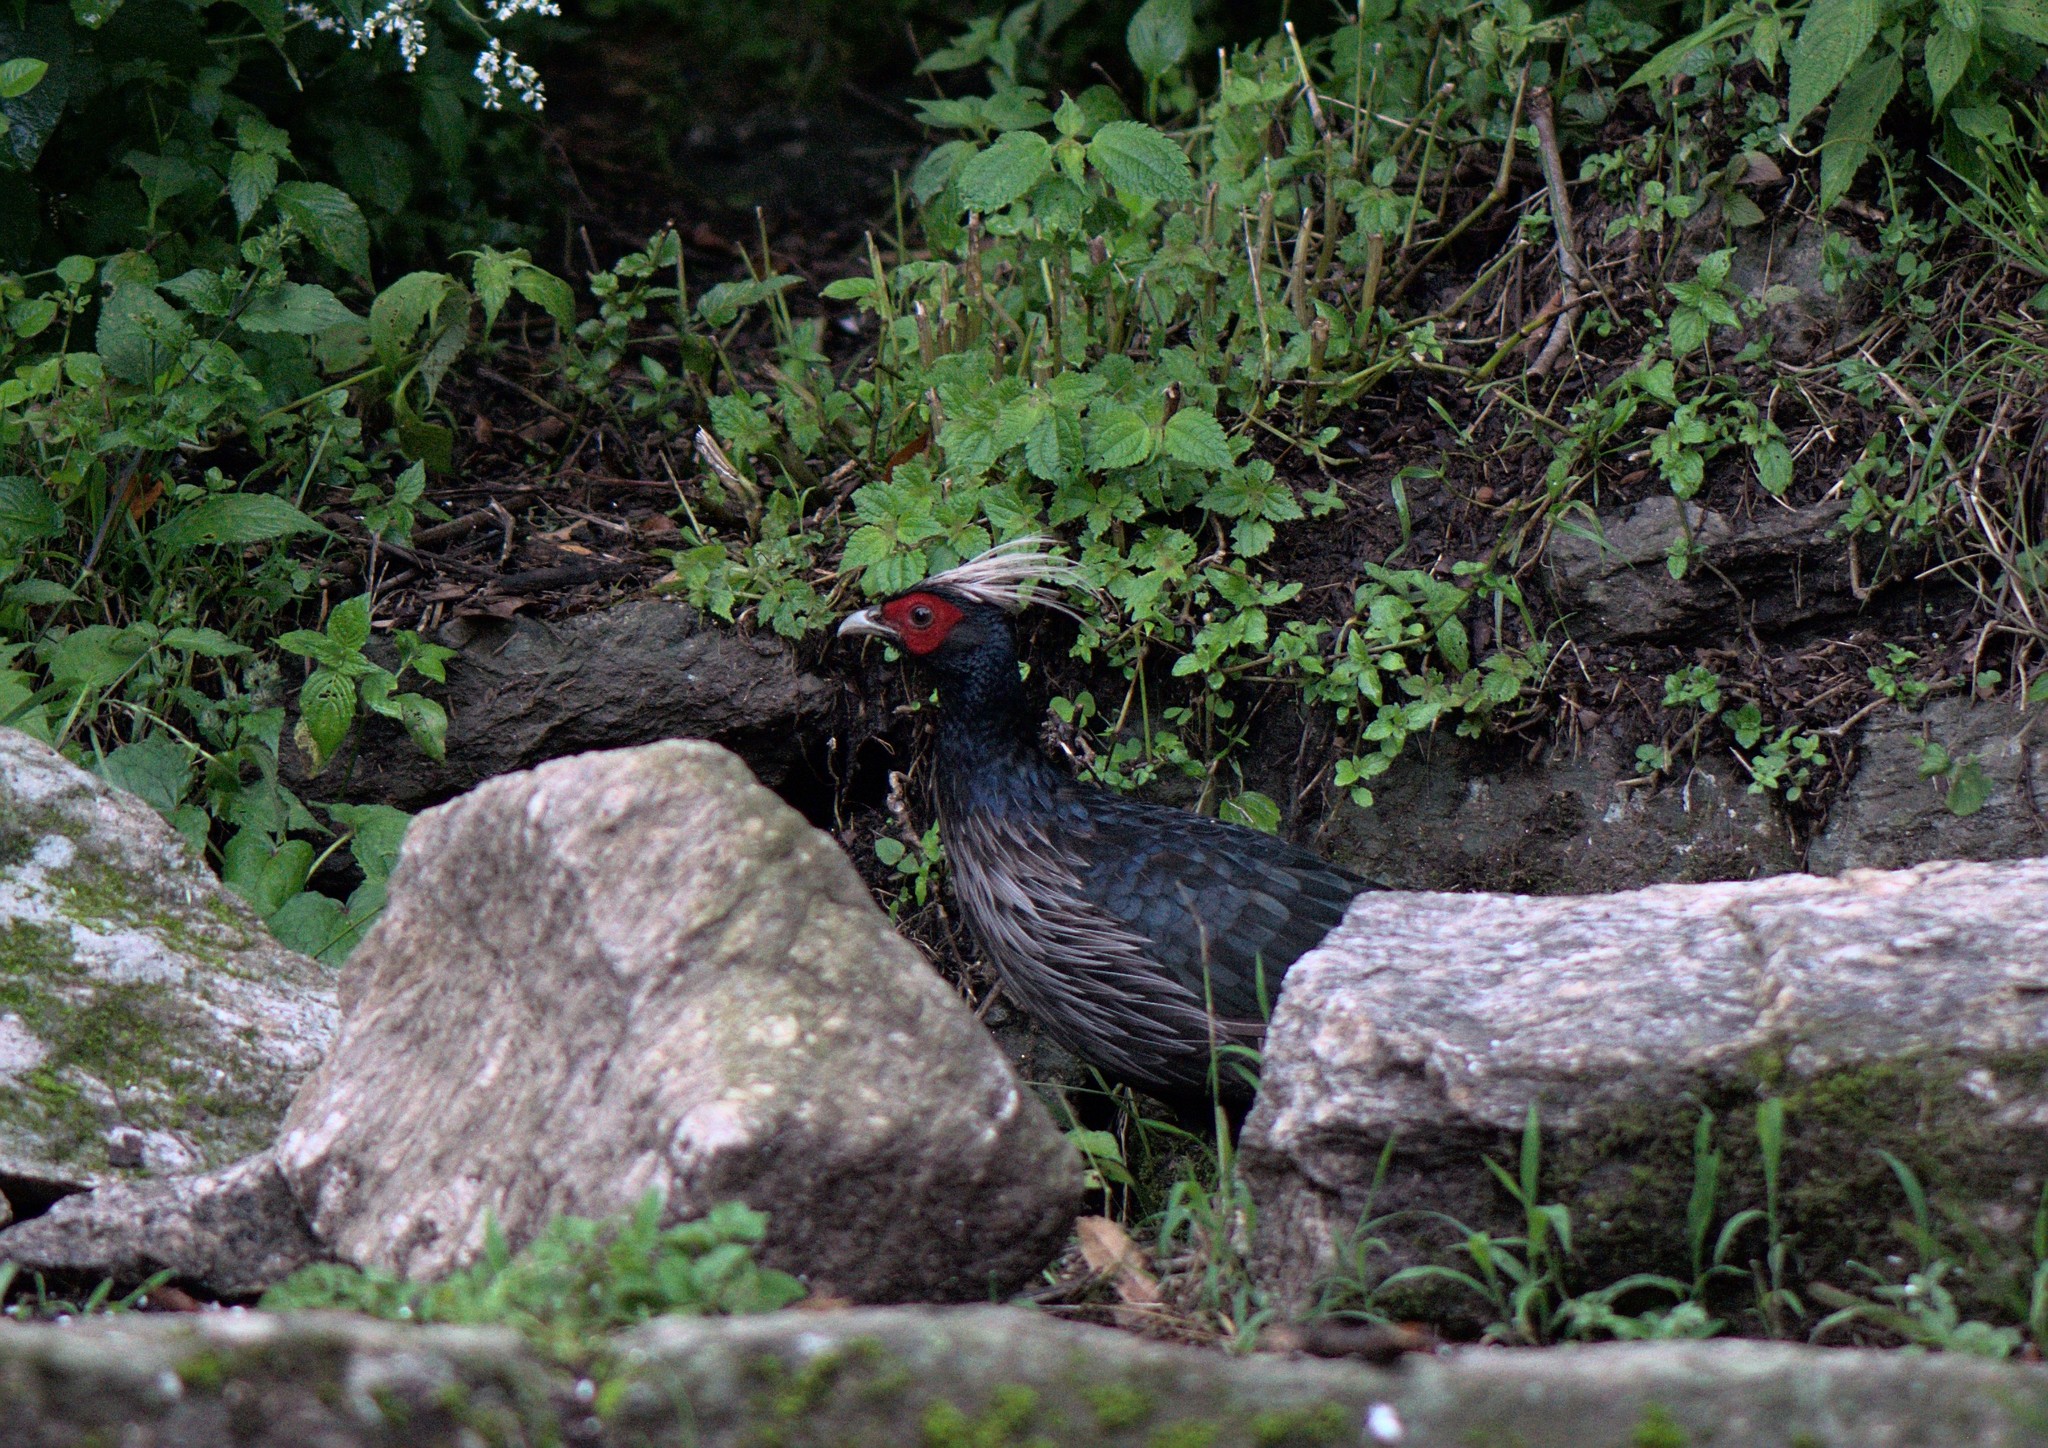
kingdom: Animalia
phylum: Chordata
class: Aves
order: Galliformes
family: Phasianidae
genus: Lophura
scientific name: Lophura leucomelanos
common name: Kalij pheasant
